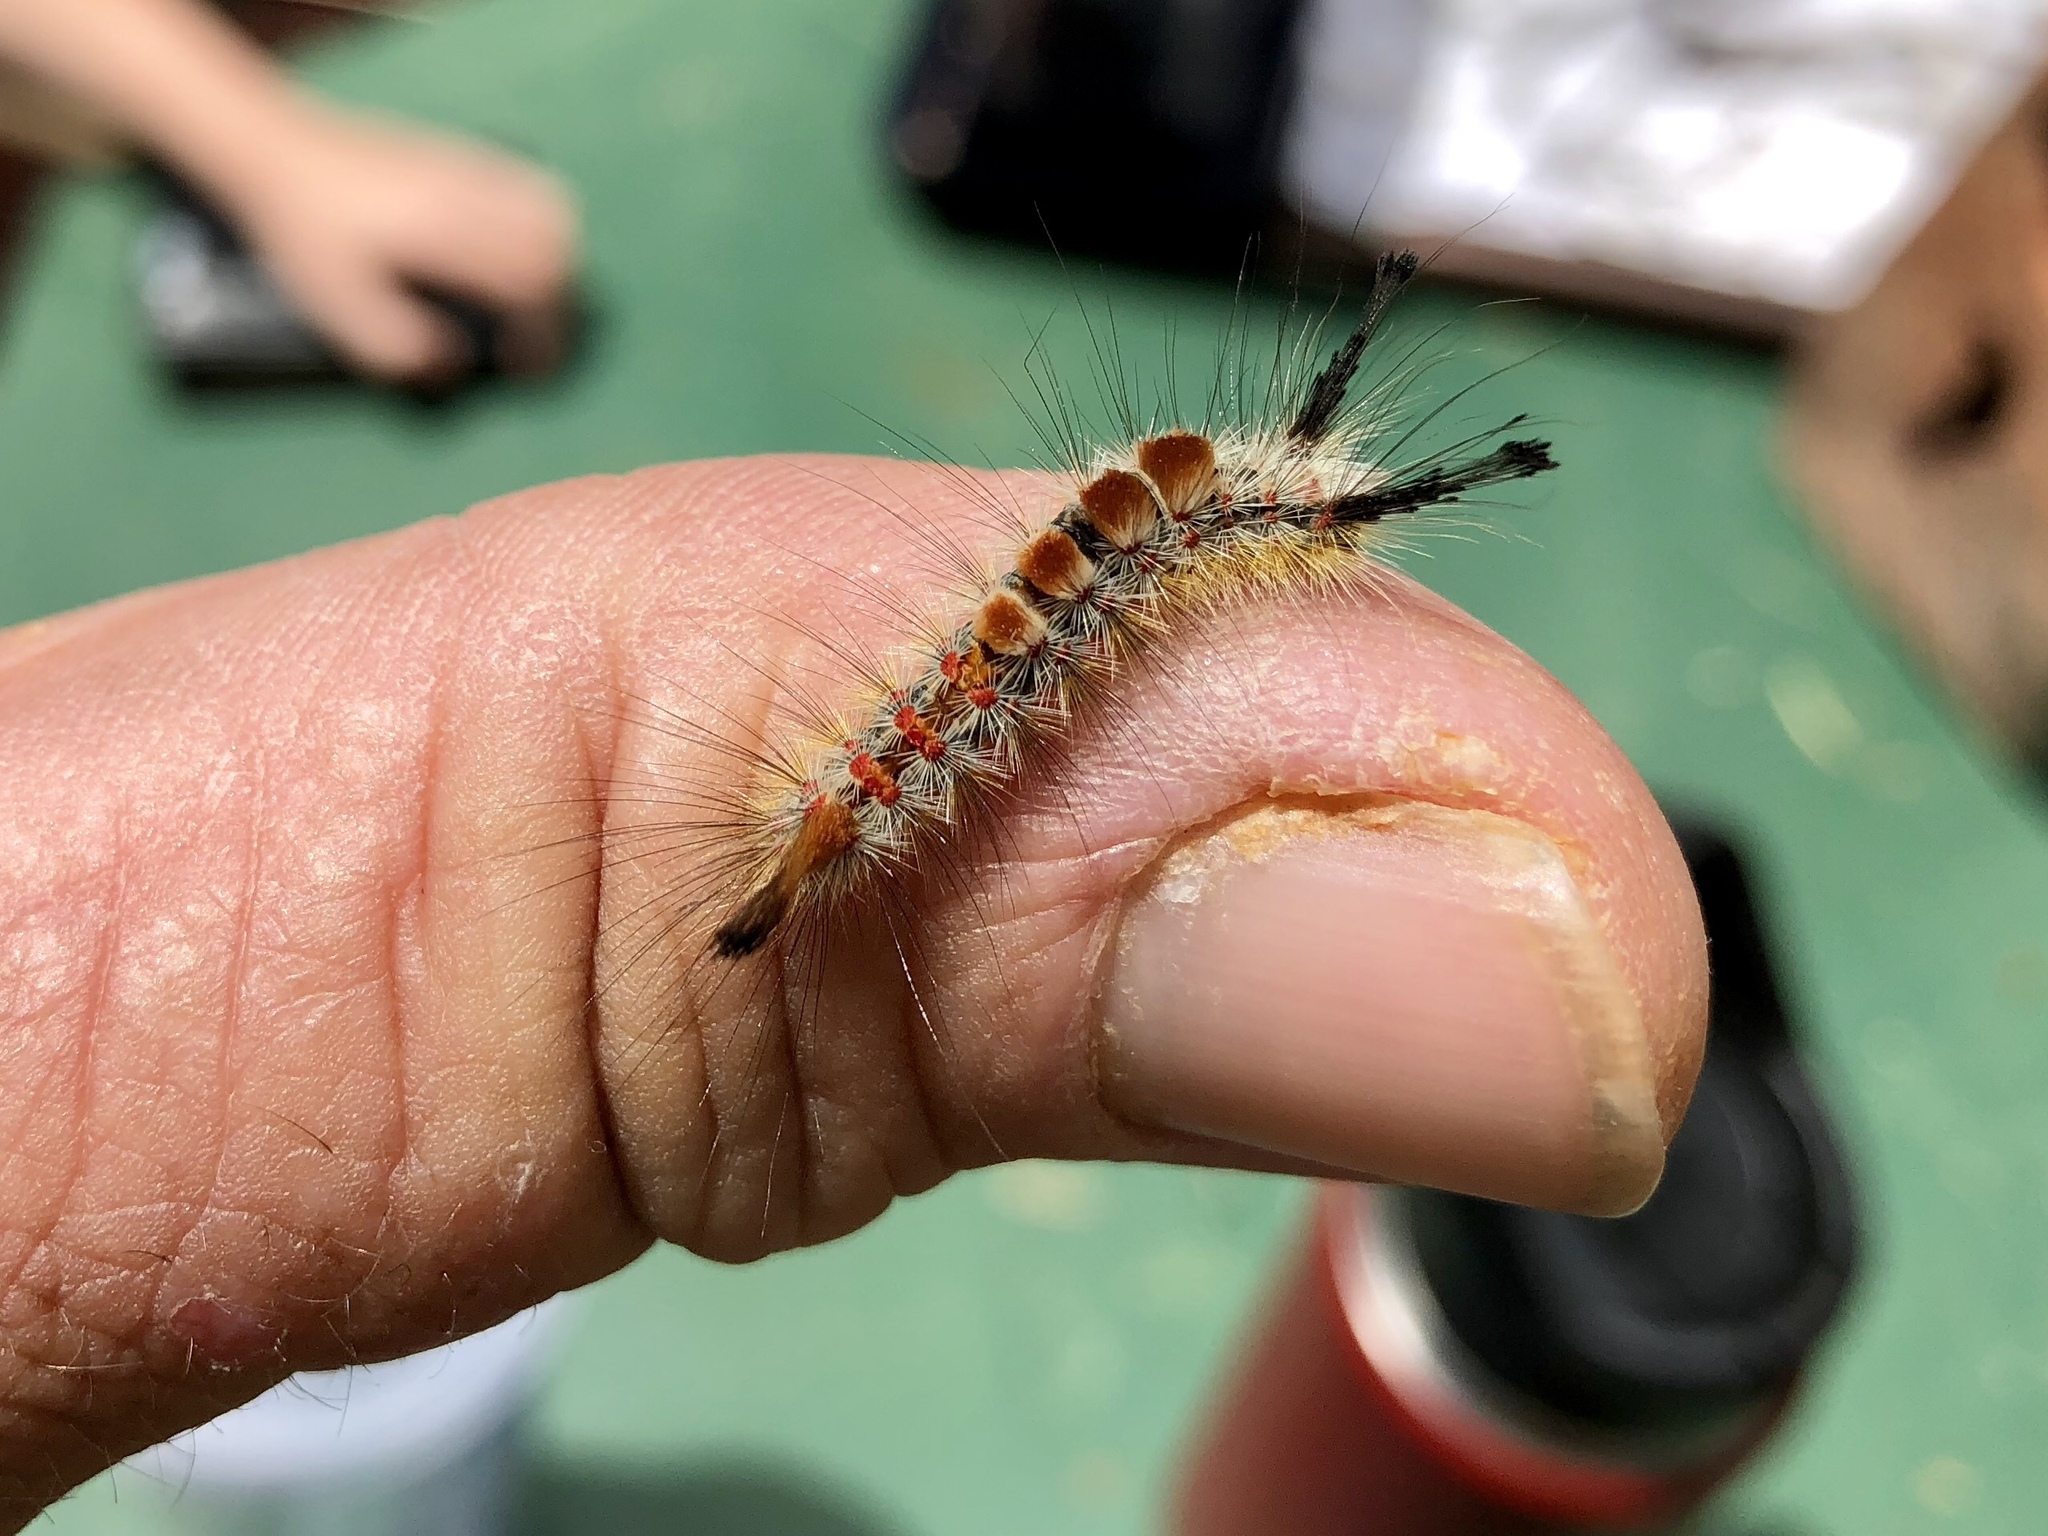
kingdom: Animalia
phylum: Arthropoda
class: Insecta
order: Lepidoptera
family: Erebidae
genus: Orgyia
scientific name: Orgyia pseudotsugata
